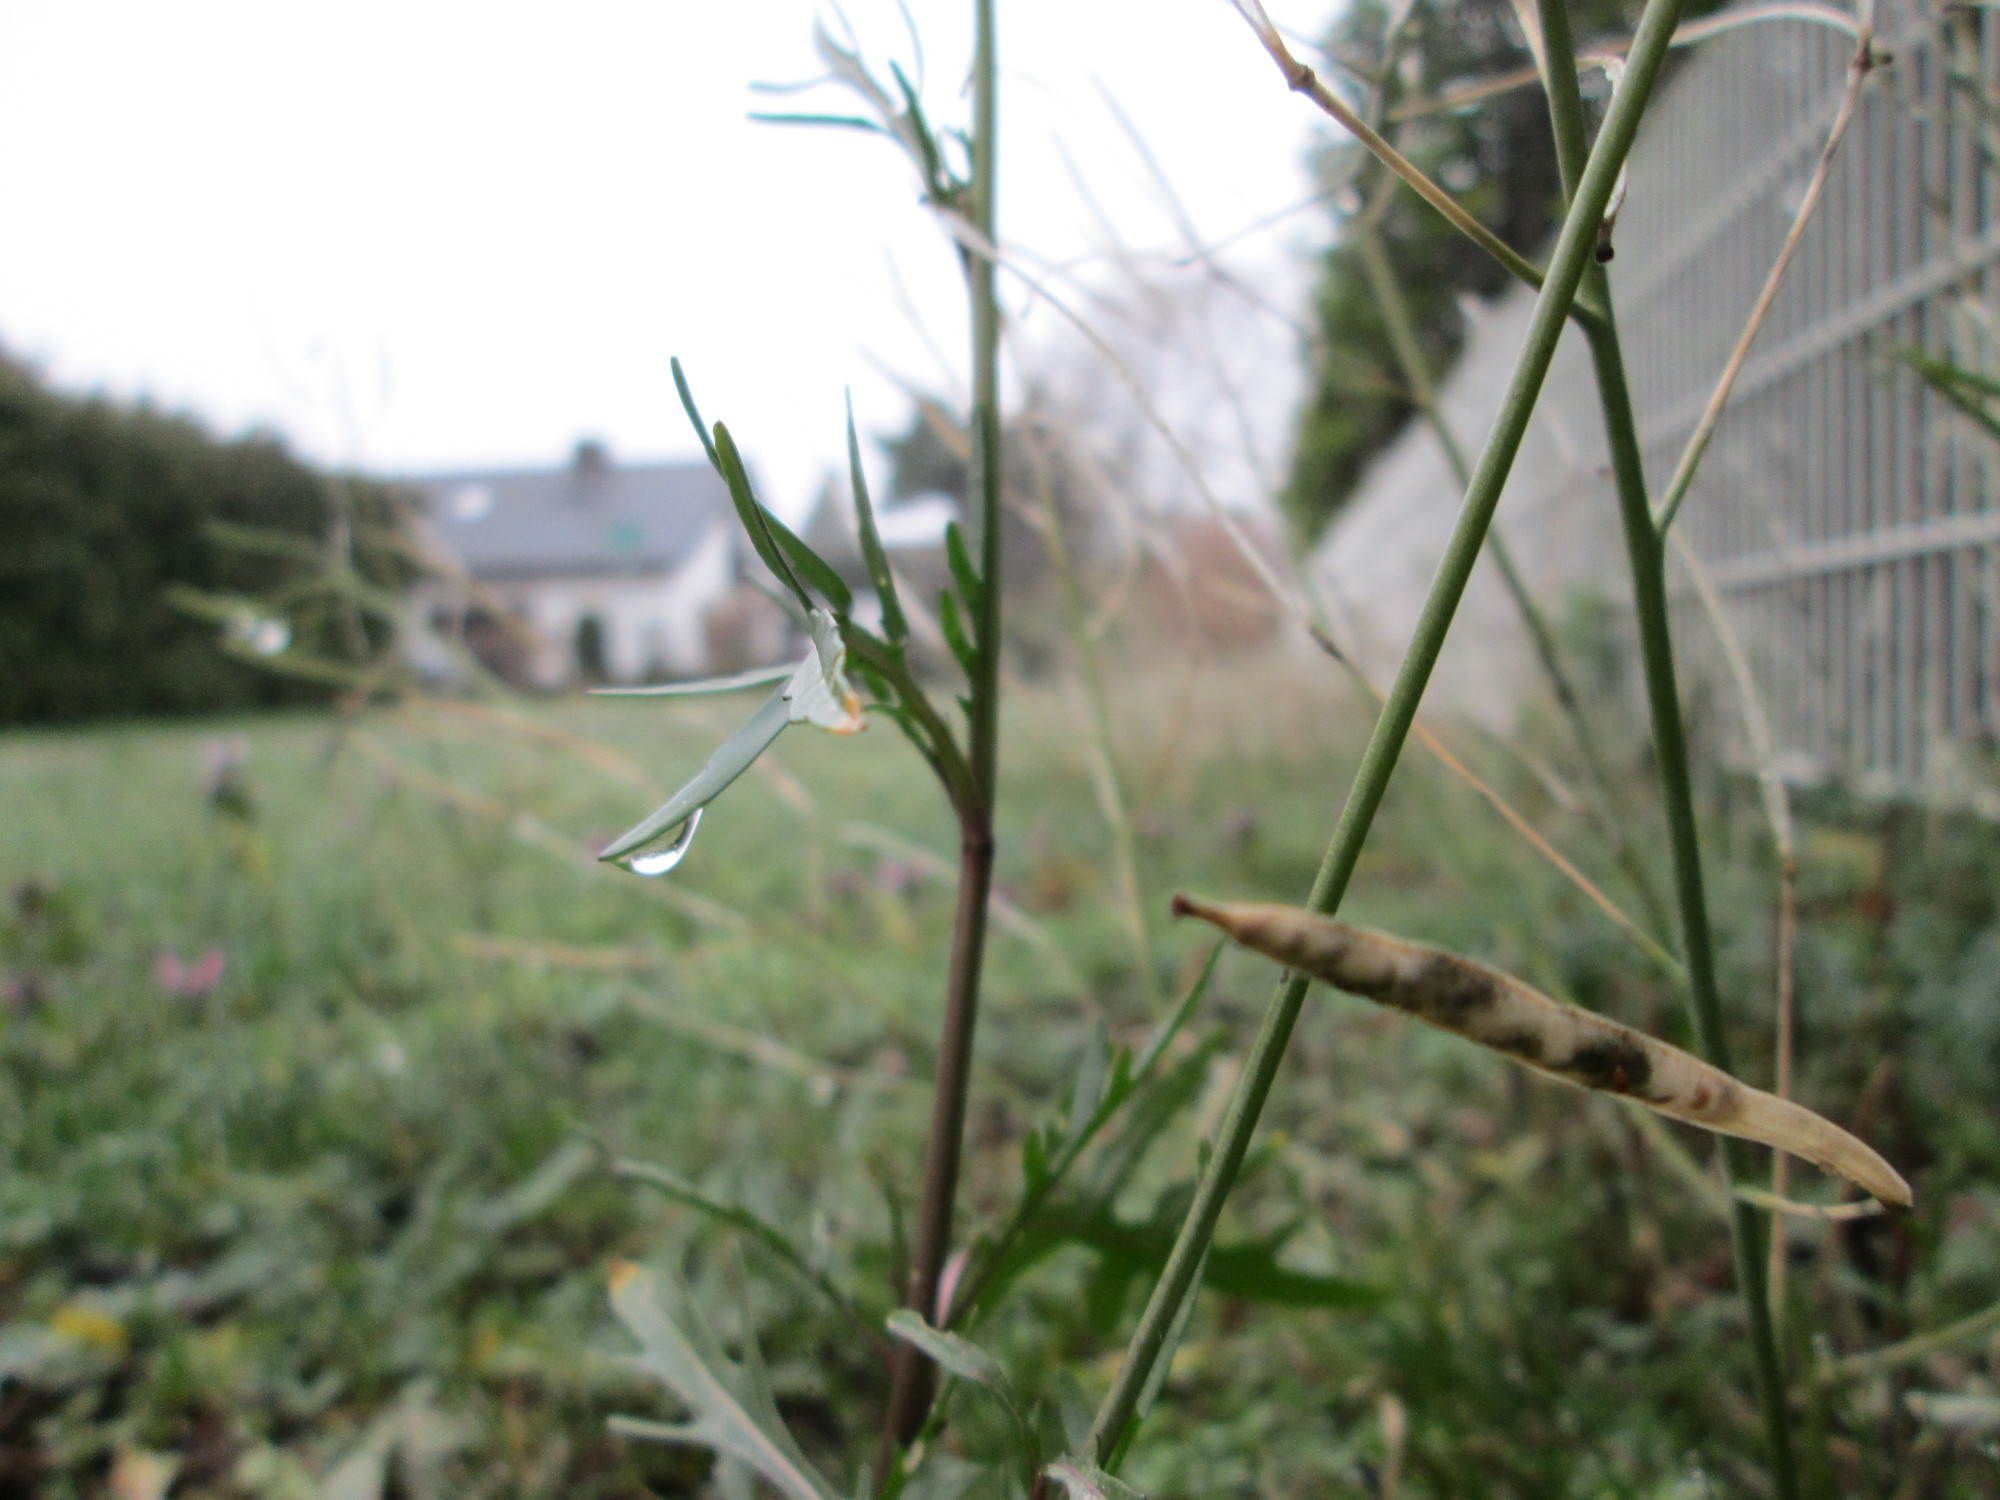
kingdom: Plantae
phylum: Tracheophyta
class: Magnoliopsida
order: Brassicales
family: Brassicaceae
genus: Diplotaxis
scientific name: Diplotaxis tenuifolia
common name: Perennial wall-rocket
